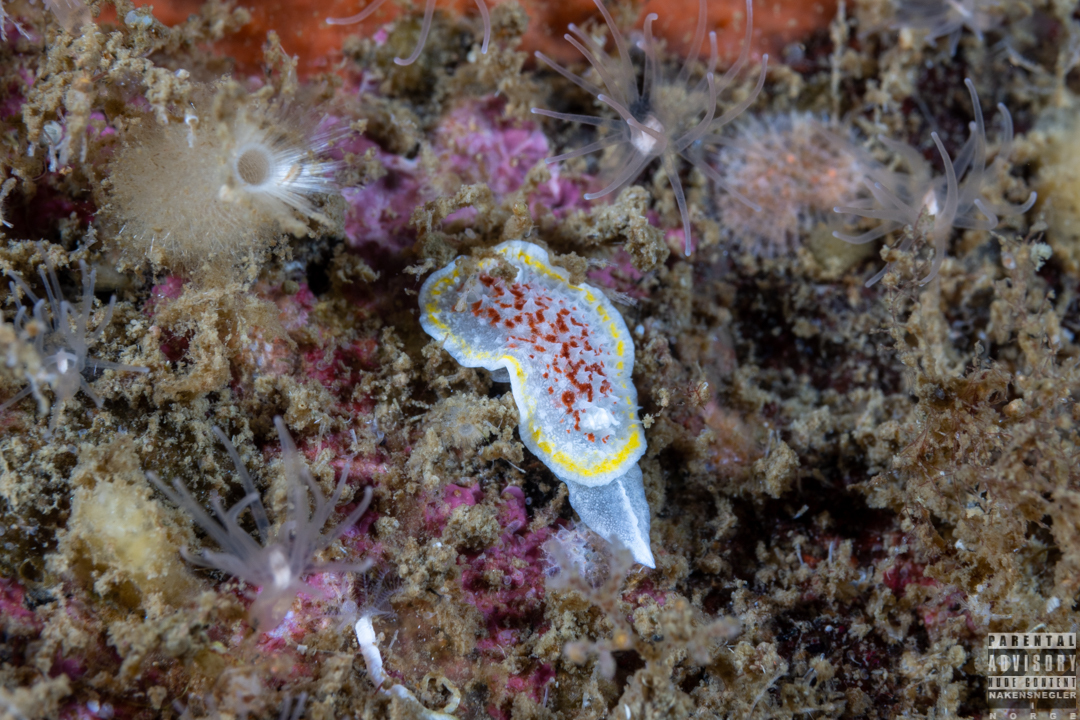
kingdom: Animalia
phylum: Mollusca
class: Gastropoda
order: Nudibranchia
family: Calycidorididae
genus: Diaphorodoris
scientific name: Diaphorodoris luteocincta
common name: Fried egg nudibranch
